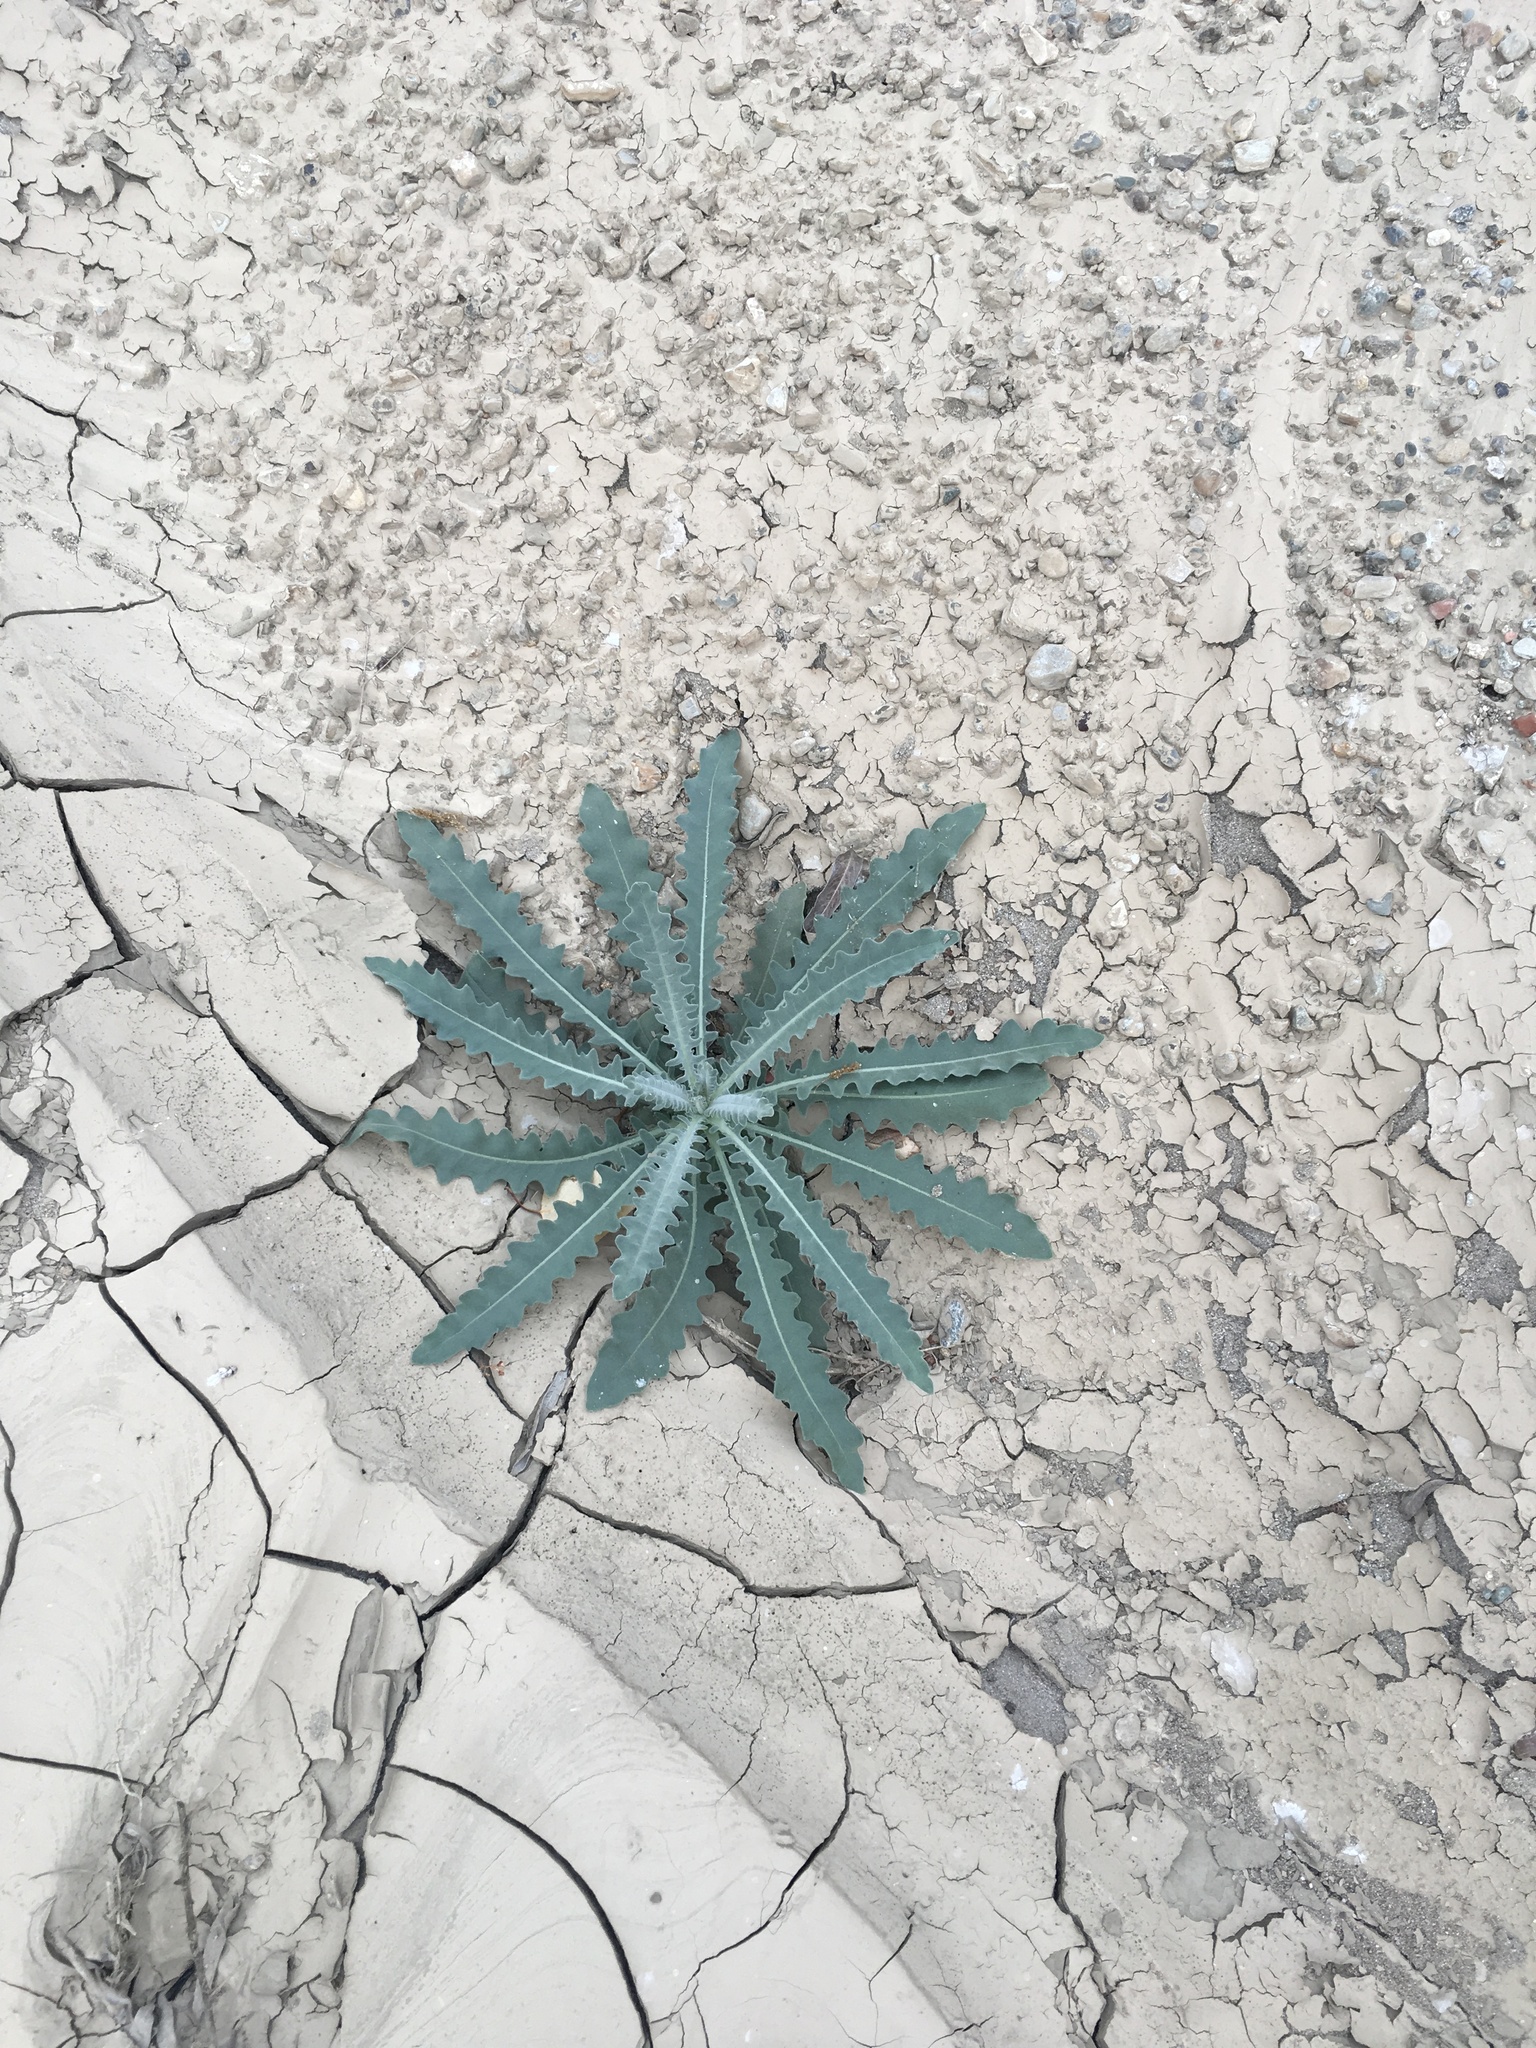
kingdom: Plantae
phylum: Tracheophyta
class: Magnoliopsida
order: Cornales
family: Loasaceae
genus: Mentzelia
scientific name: Mentzelia laevicaulis
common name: Smooth-stem blazingstar
